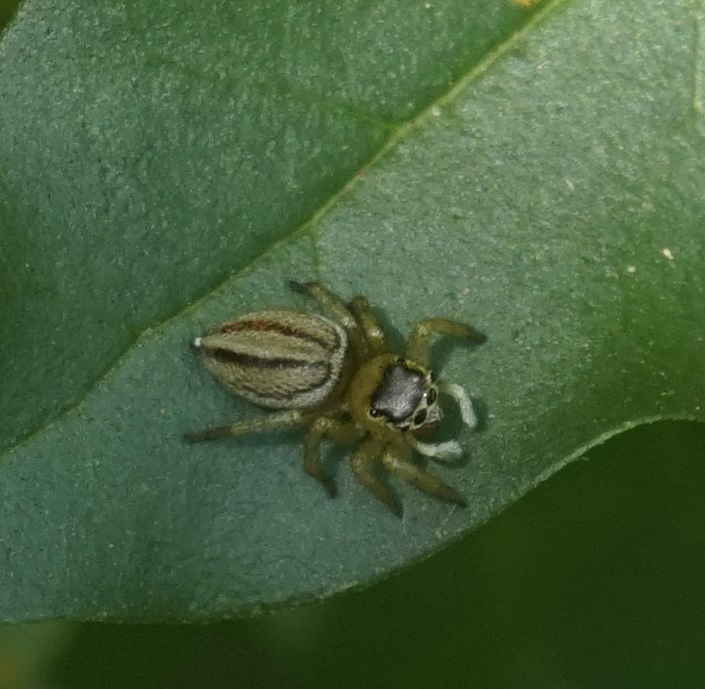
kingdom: Animalia
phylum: Arthropoda
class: Arachnida
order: Araneae
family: Salticidae
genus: Maratus
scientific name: Maratus scutulatus
